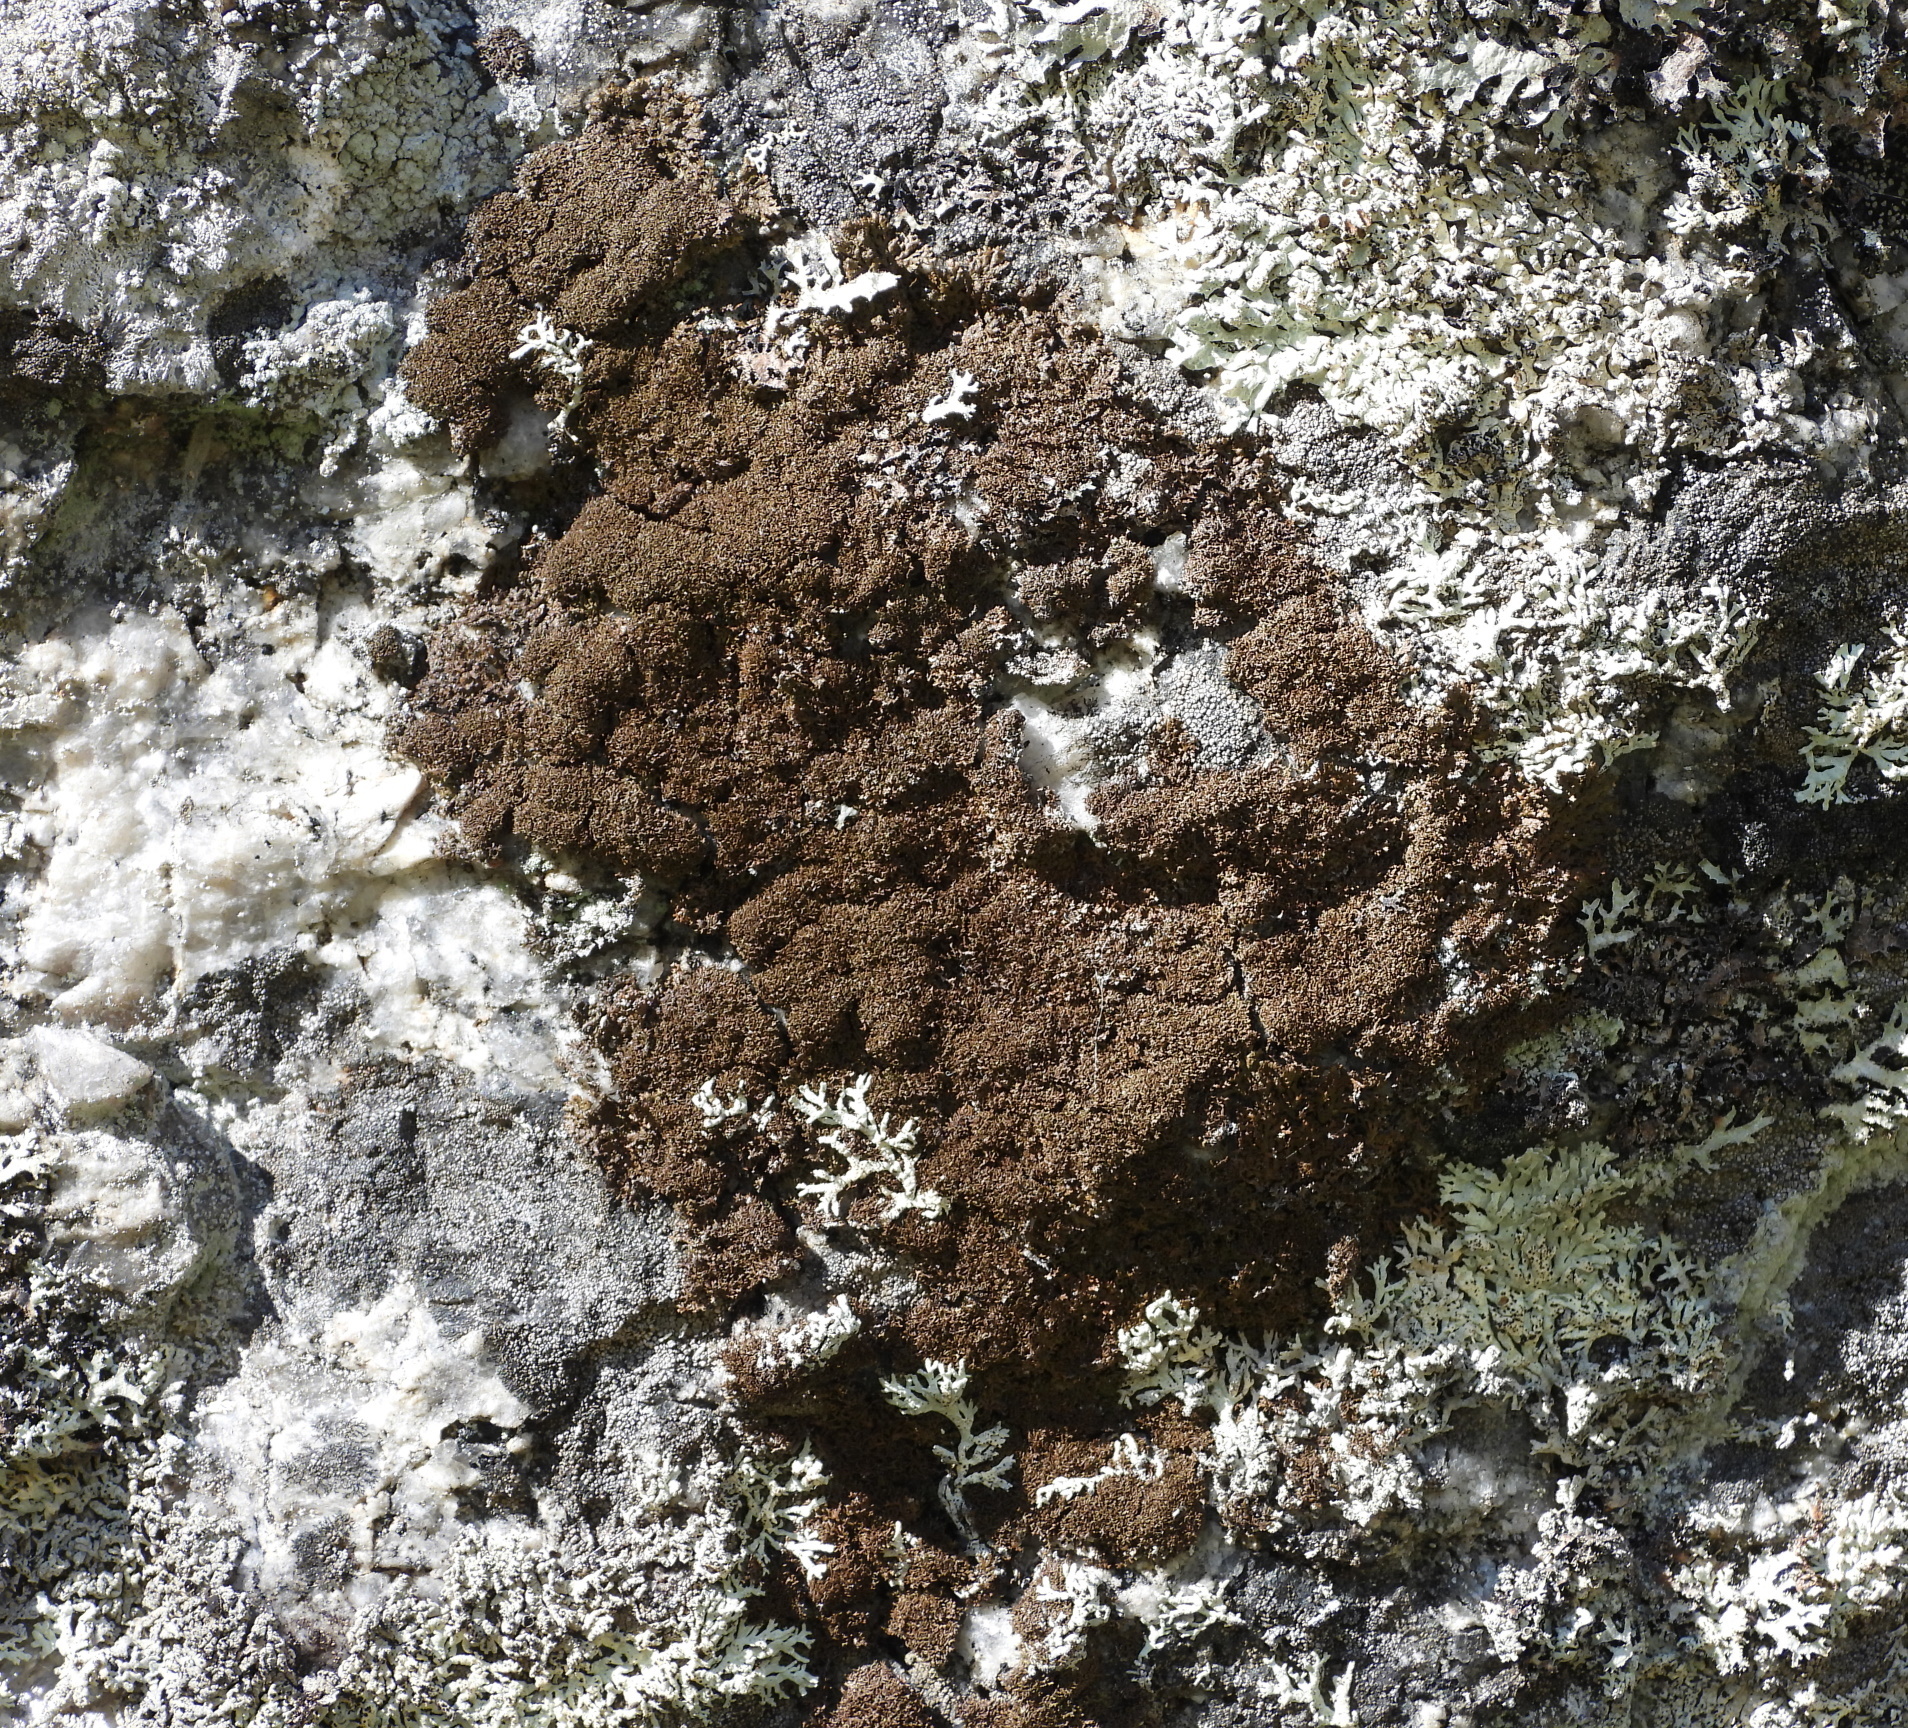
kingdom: Fungi
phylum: Ascomycota
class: Lecanoromycetes
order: Lecanorales
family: Parmeliaceae
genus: Montanelia
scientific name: Montanelia panniformis
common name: Shingled camouflage lichen
